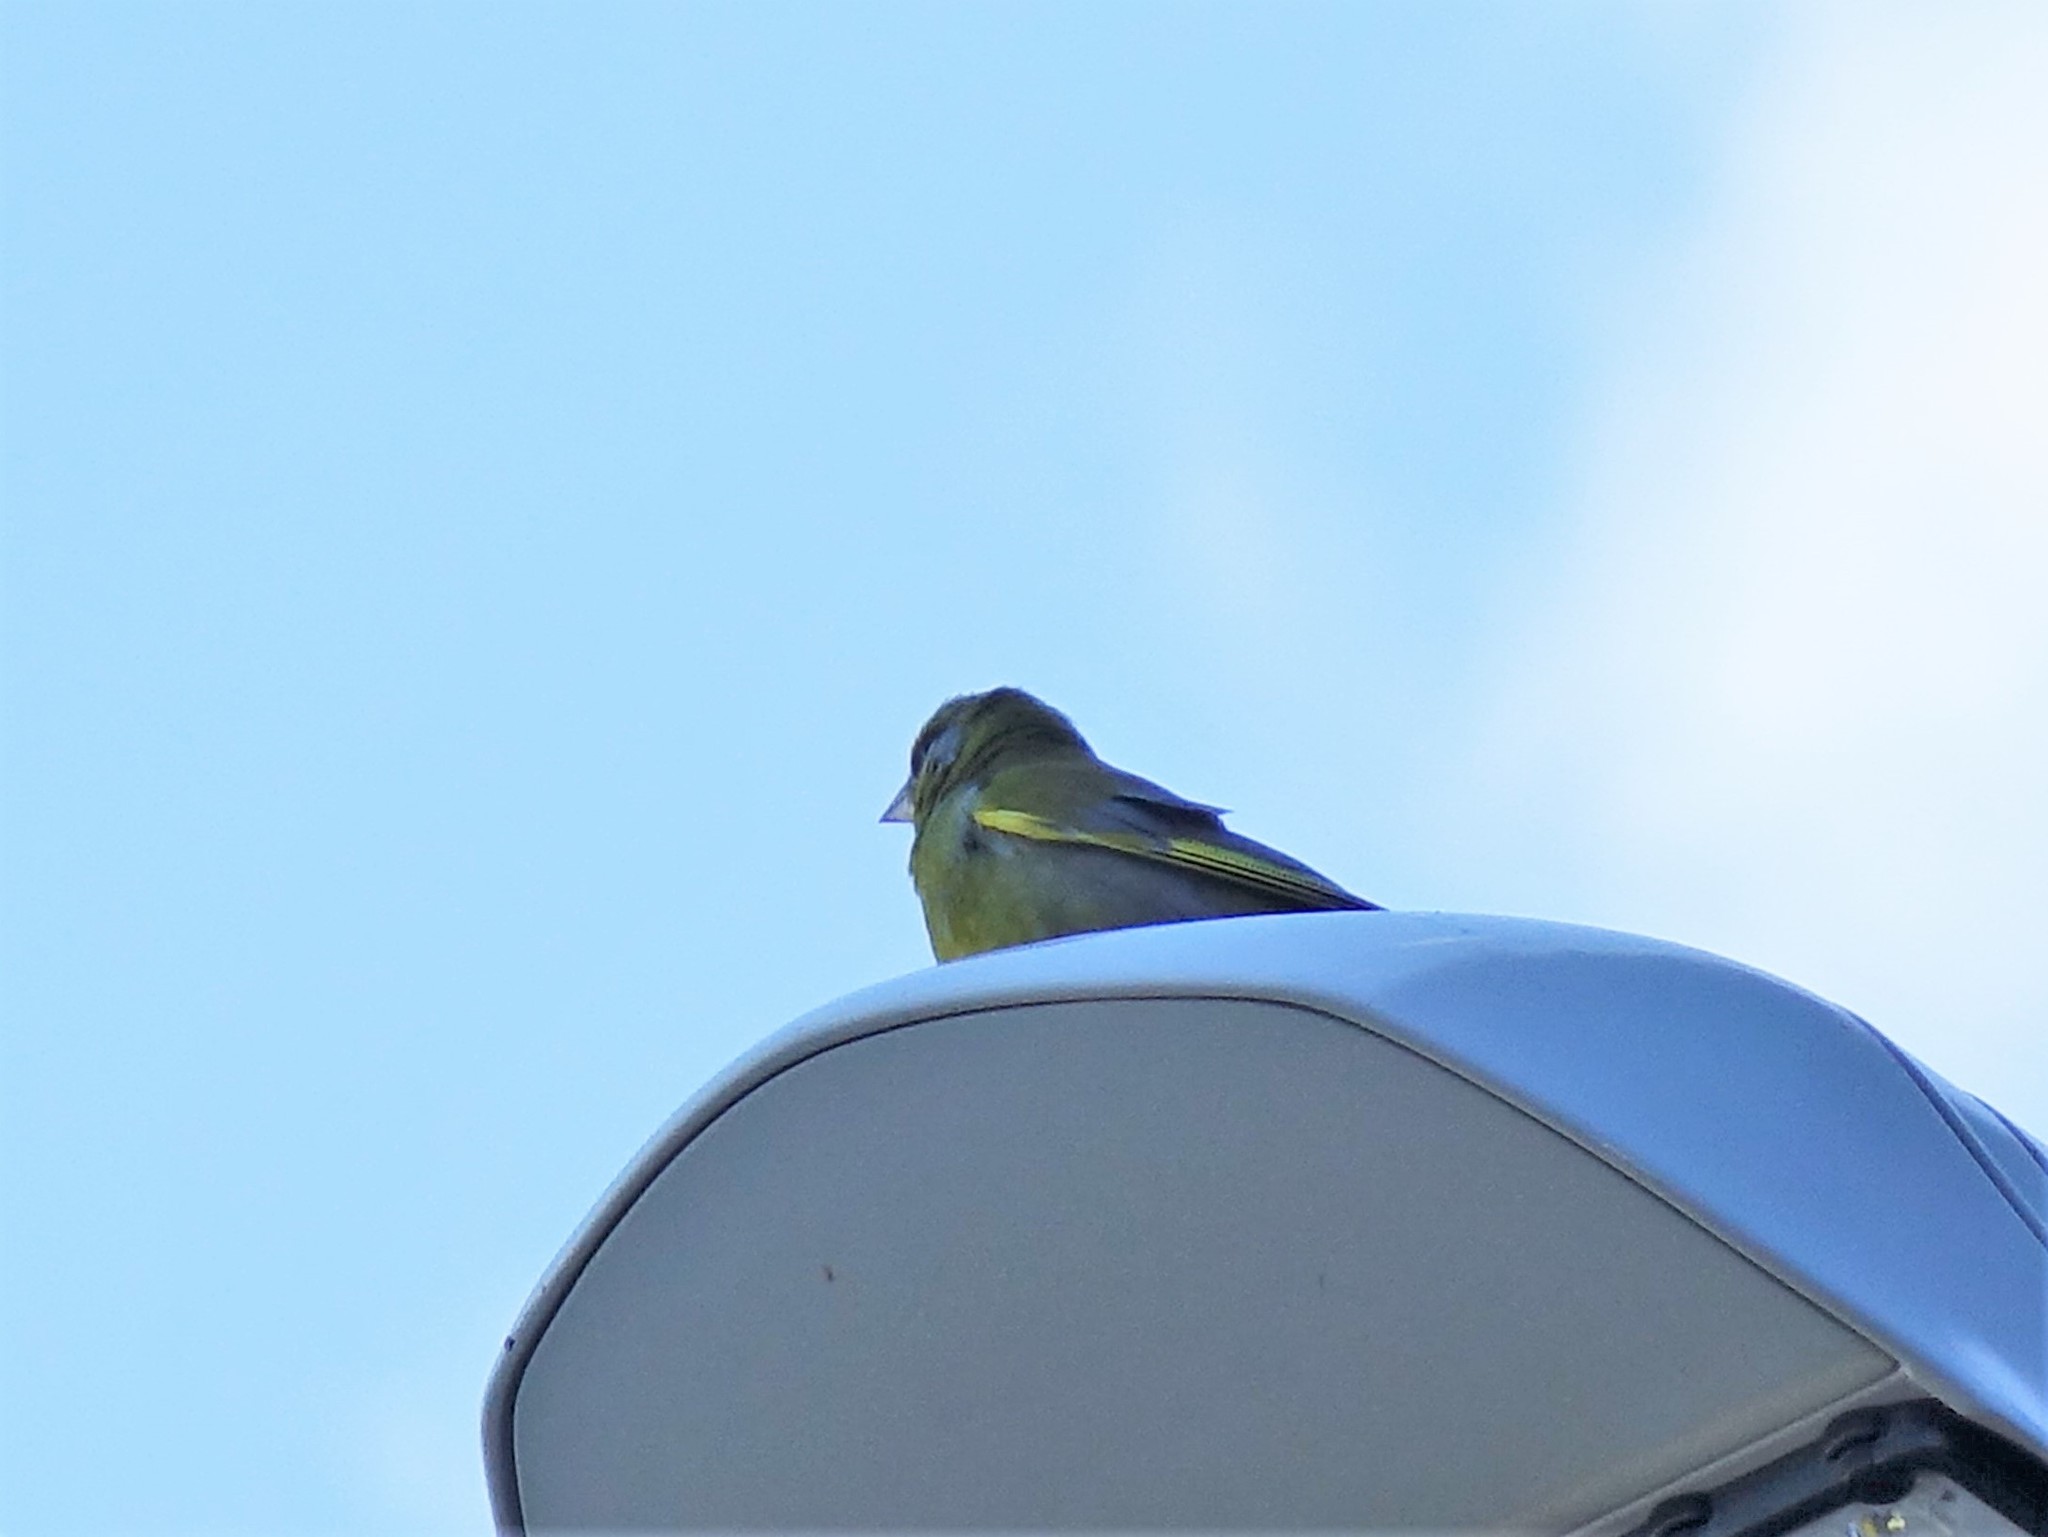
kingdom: Plantae
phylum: Tracheophyta
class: Liliopsida
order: Poales
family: Poaceae
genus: Chloris
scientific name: Chloris chloris
